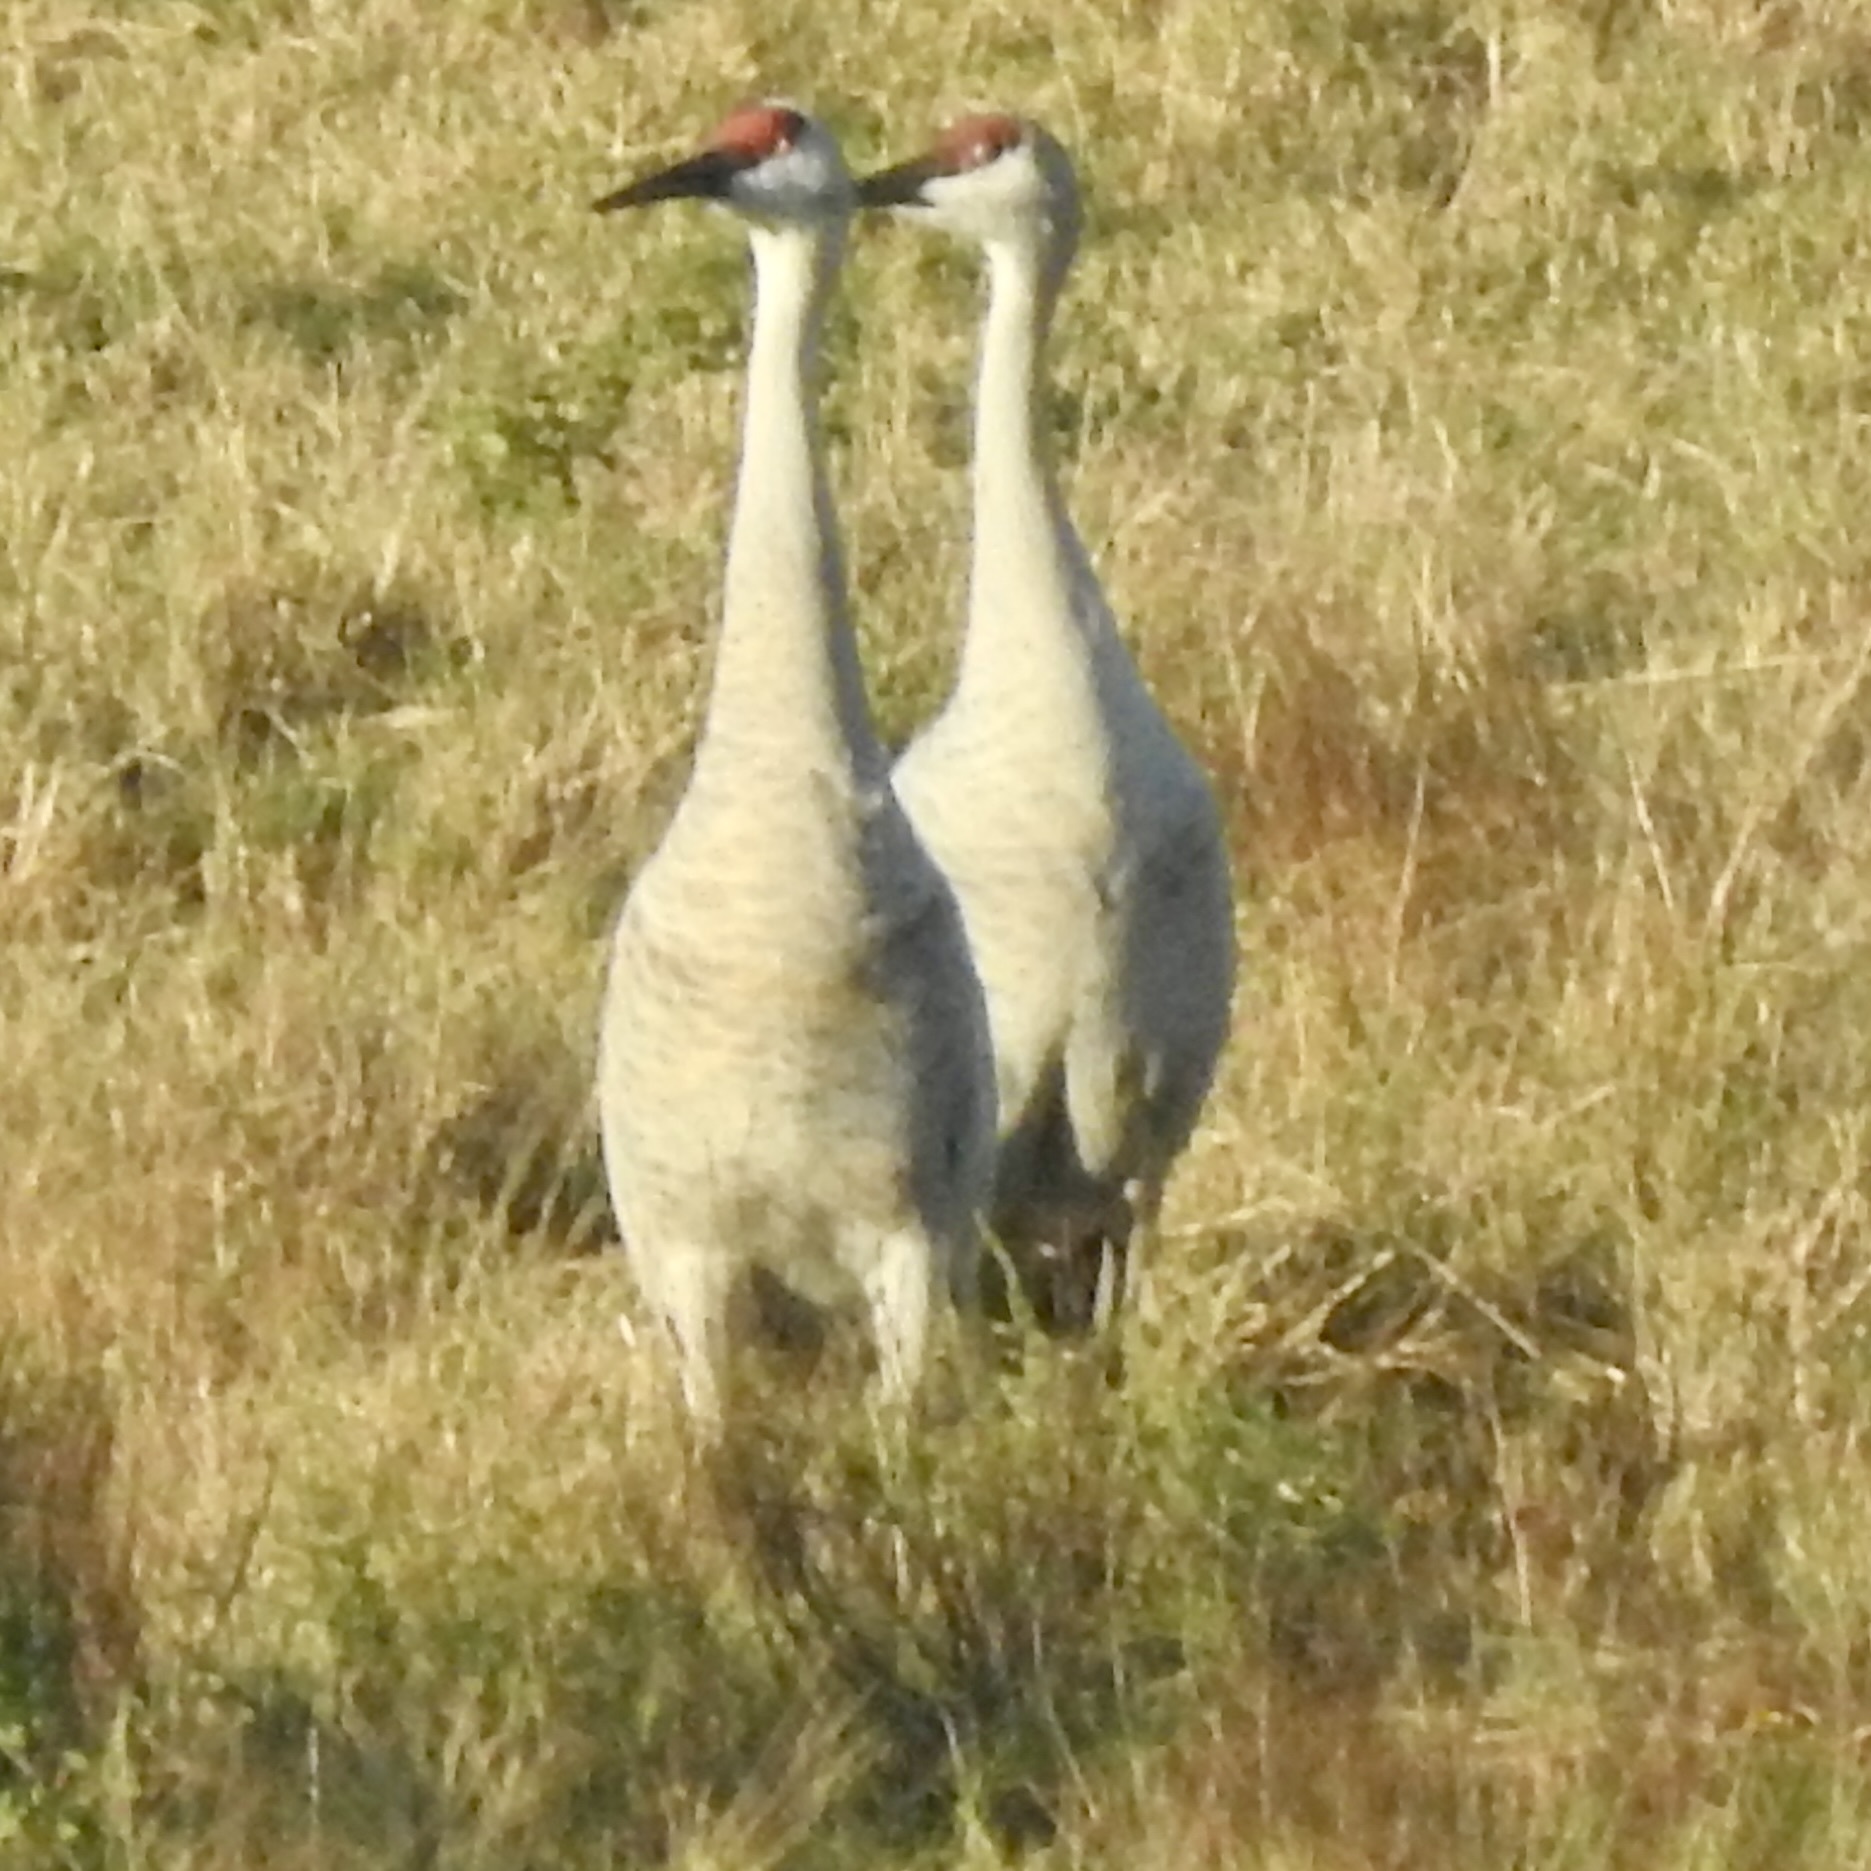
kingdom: Animalia
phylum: Chordata
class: Aves
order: Gruiformes
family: Gruidae
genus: Grus
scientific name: Grus canadensis
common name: Sandhill crane
